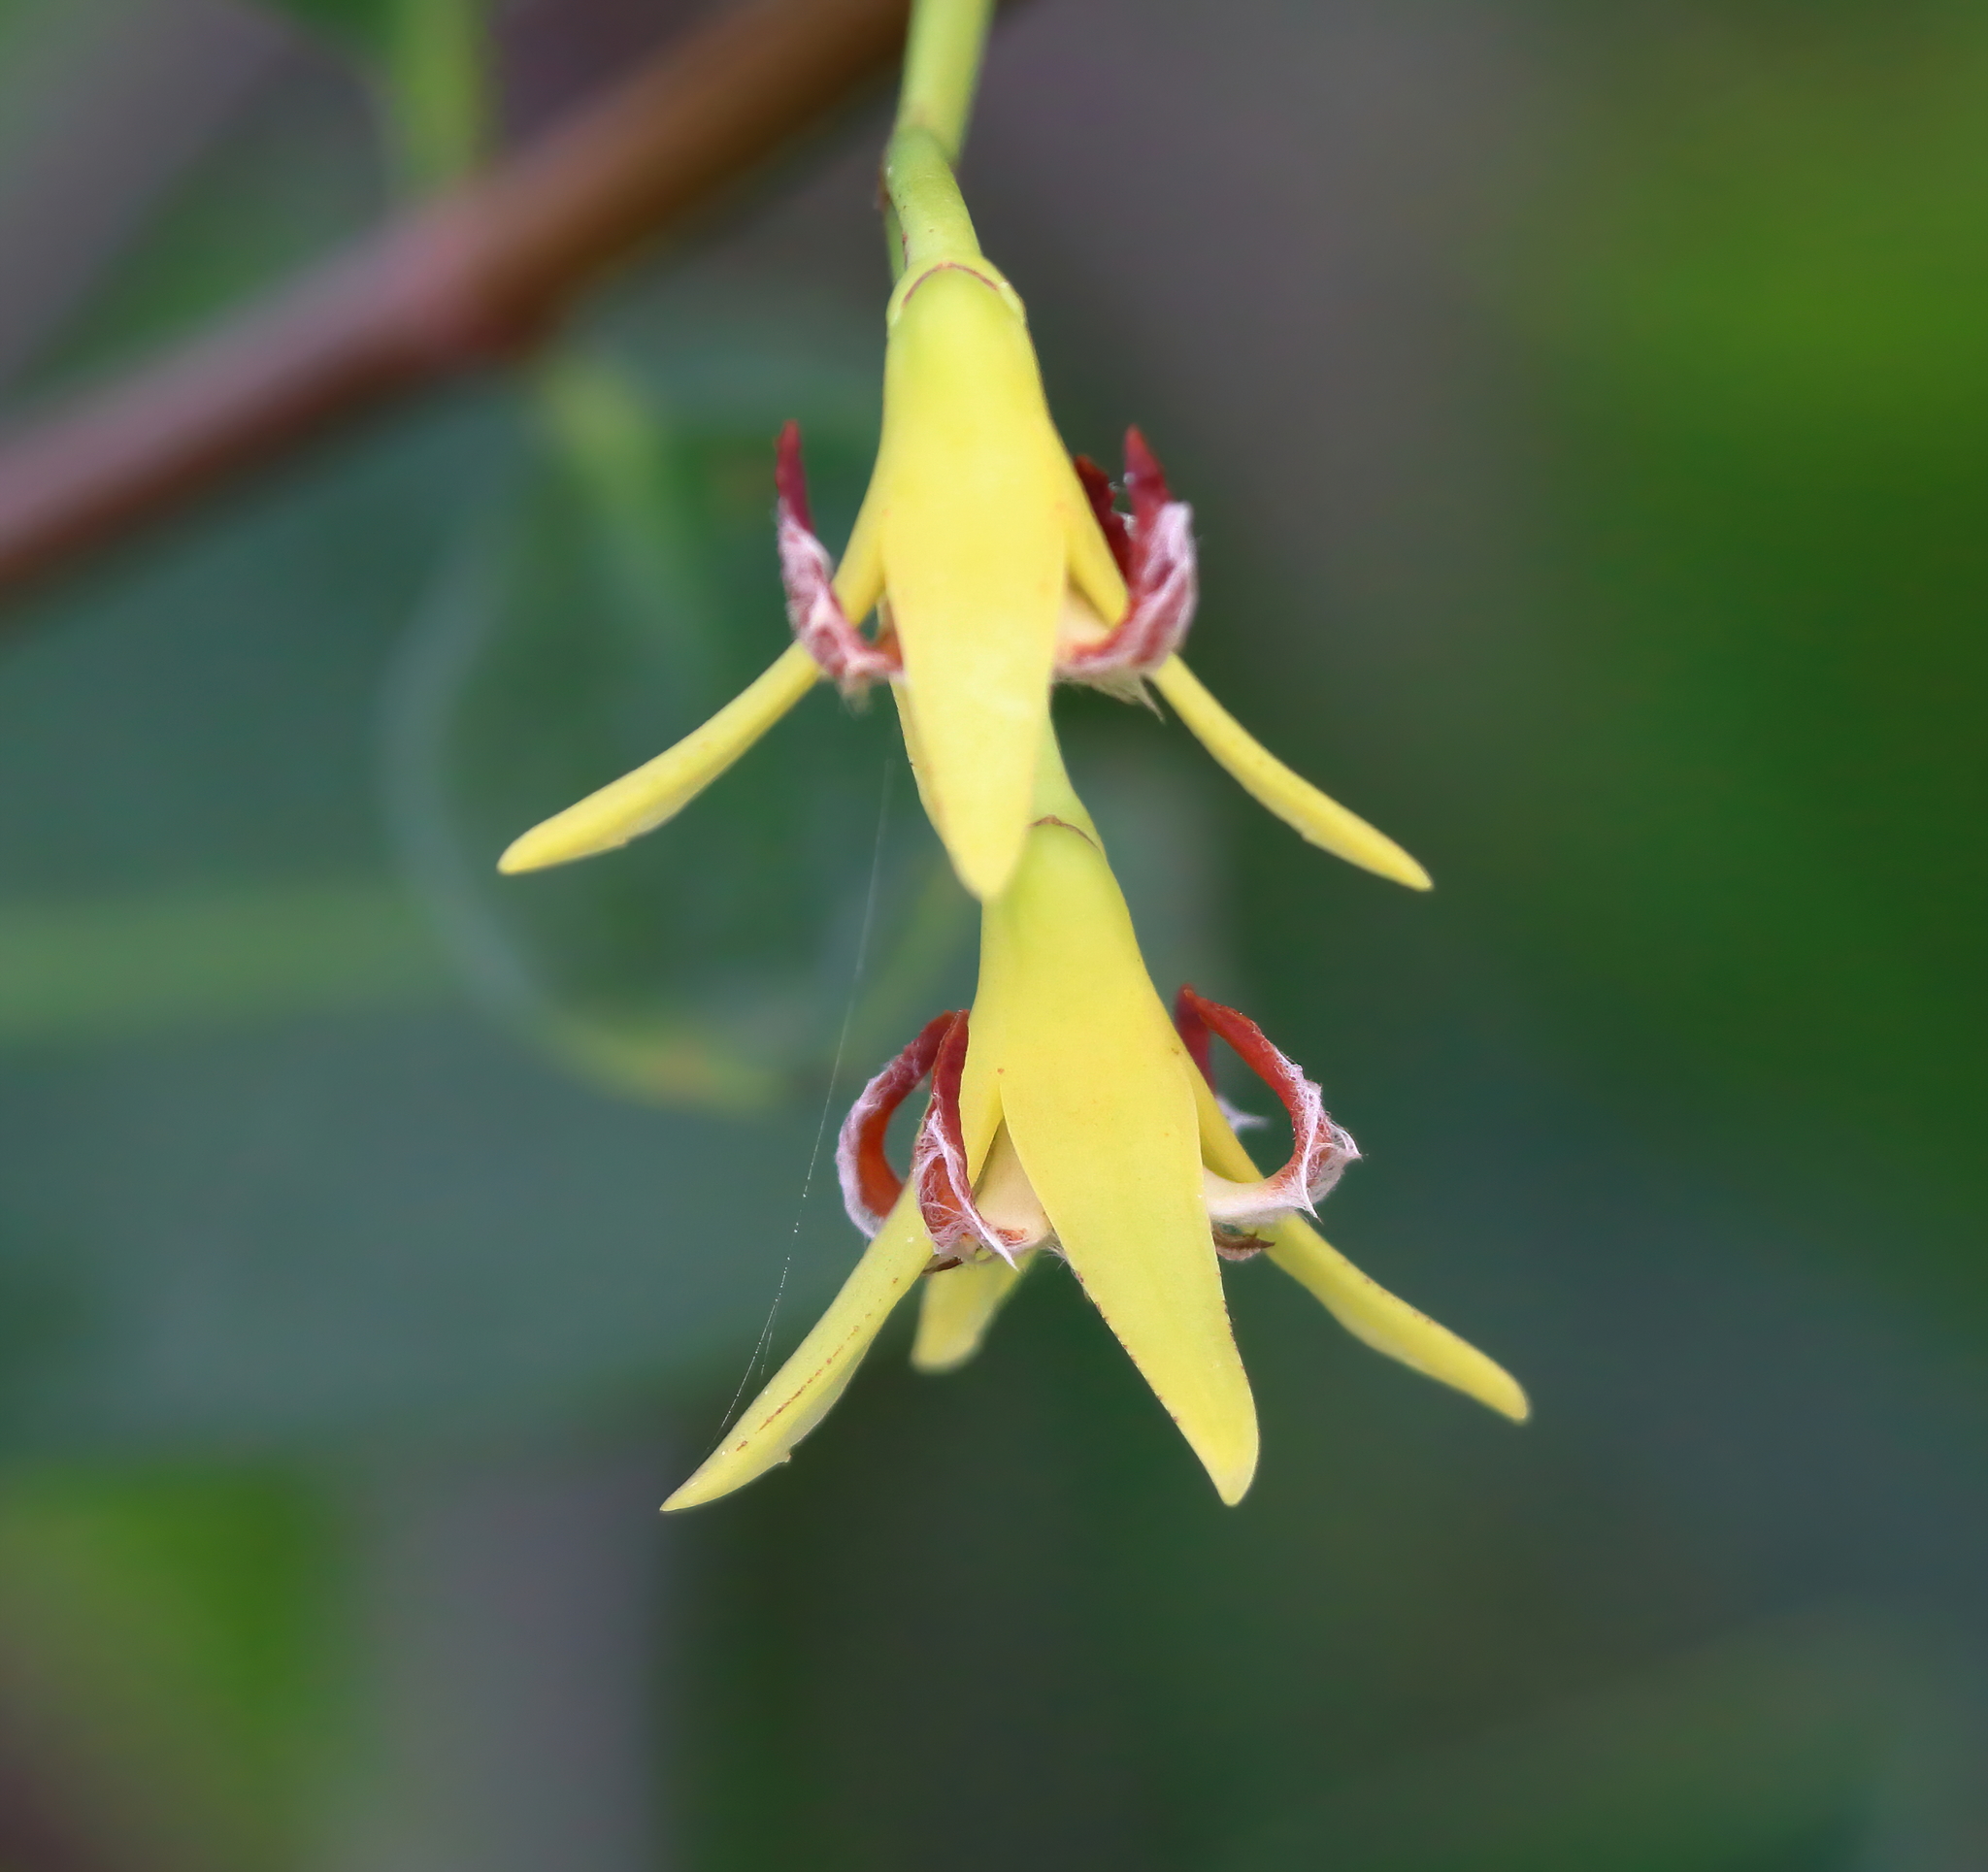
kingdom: Plantae
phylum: Tracheophyta
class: Magnoliopsida
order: Malpighiales
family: Rhizophoraceae
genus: Rhizophora
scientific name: Rhizophora mangle
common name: Red mangrove
